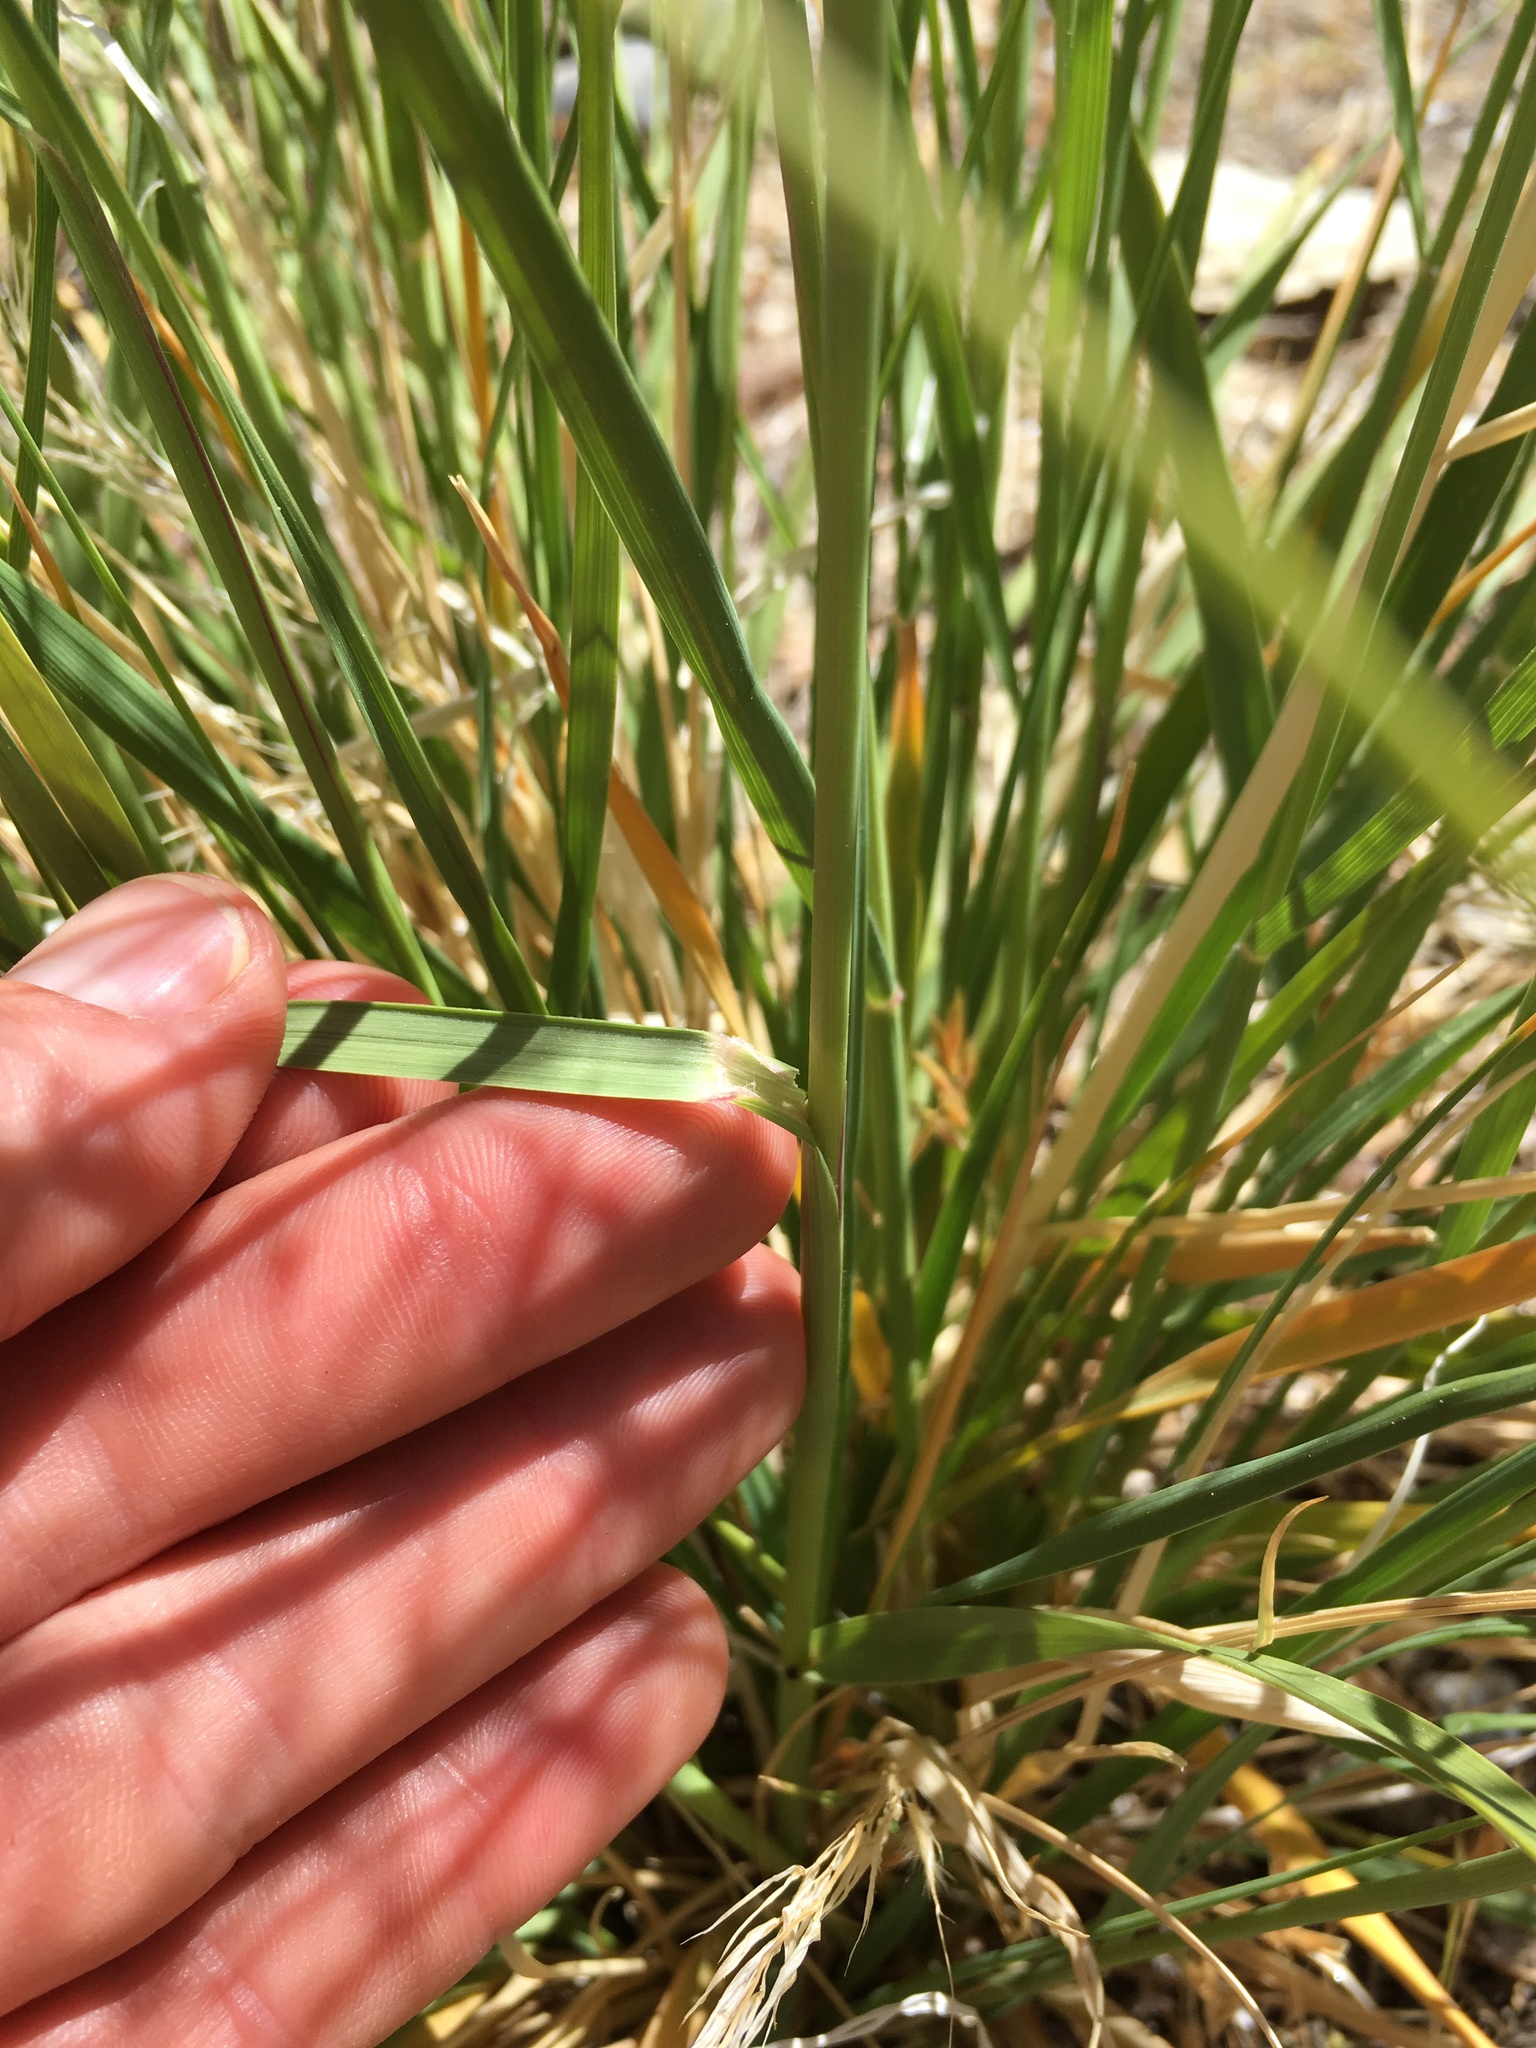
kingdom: Plantae
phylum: Tracheophyta
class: Liliopsida
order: Poales
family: Poaceae
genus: Eriocoma
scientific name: Eriocoma parishii
